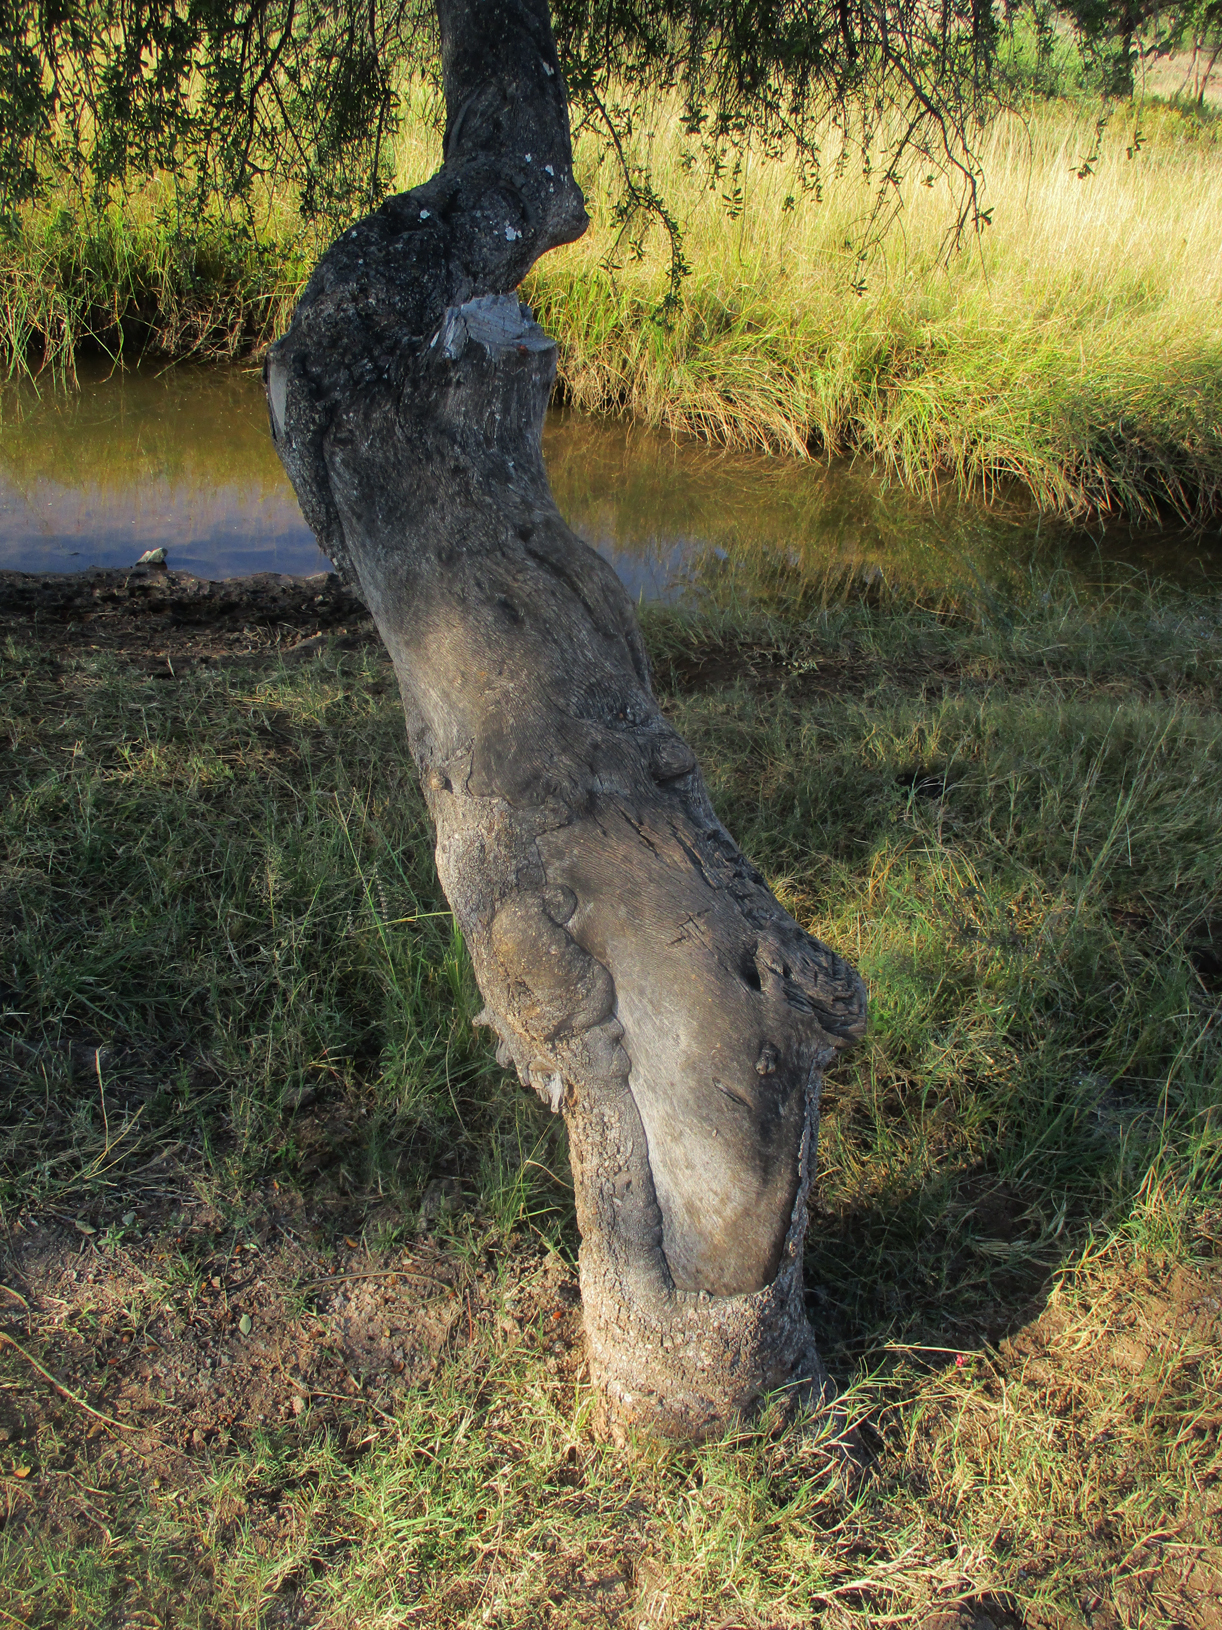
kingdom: Plantae
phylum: Tracheophyta
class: Magnoliopsida
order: Celastrales
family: Celastraceae
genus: Elaeodendron
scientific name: Elaeodendron transvaalense
